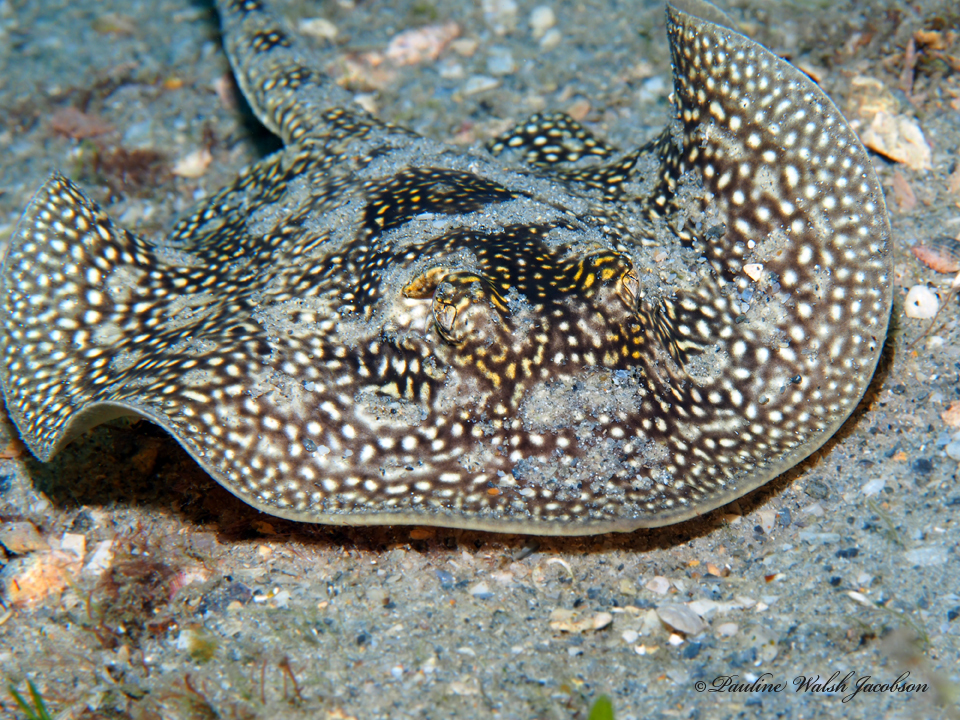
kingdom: Animalia
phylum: Chordata
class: Elasmobranchii
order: Myliobatiformes
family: Urotrygonidae
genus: Urobatis
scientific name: Urobatis jamaicensis
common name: Yellow stingray
